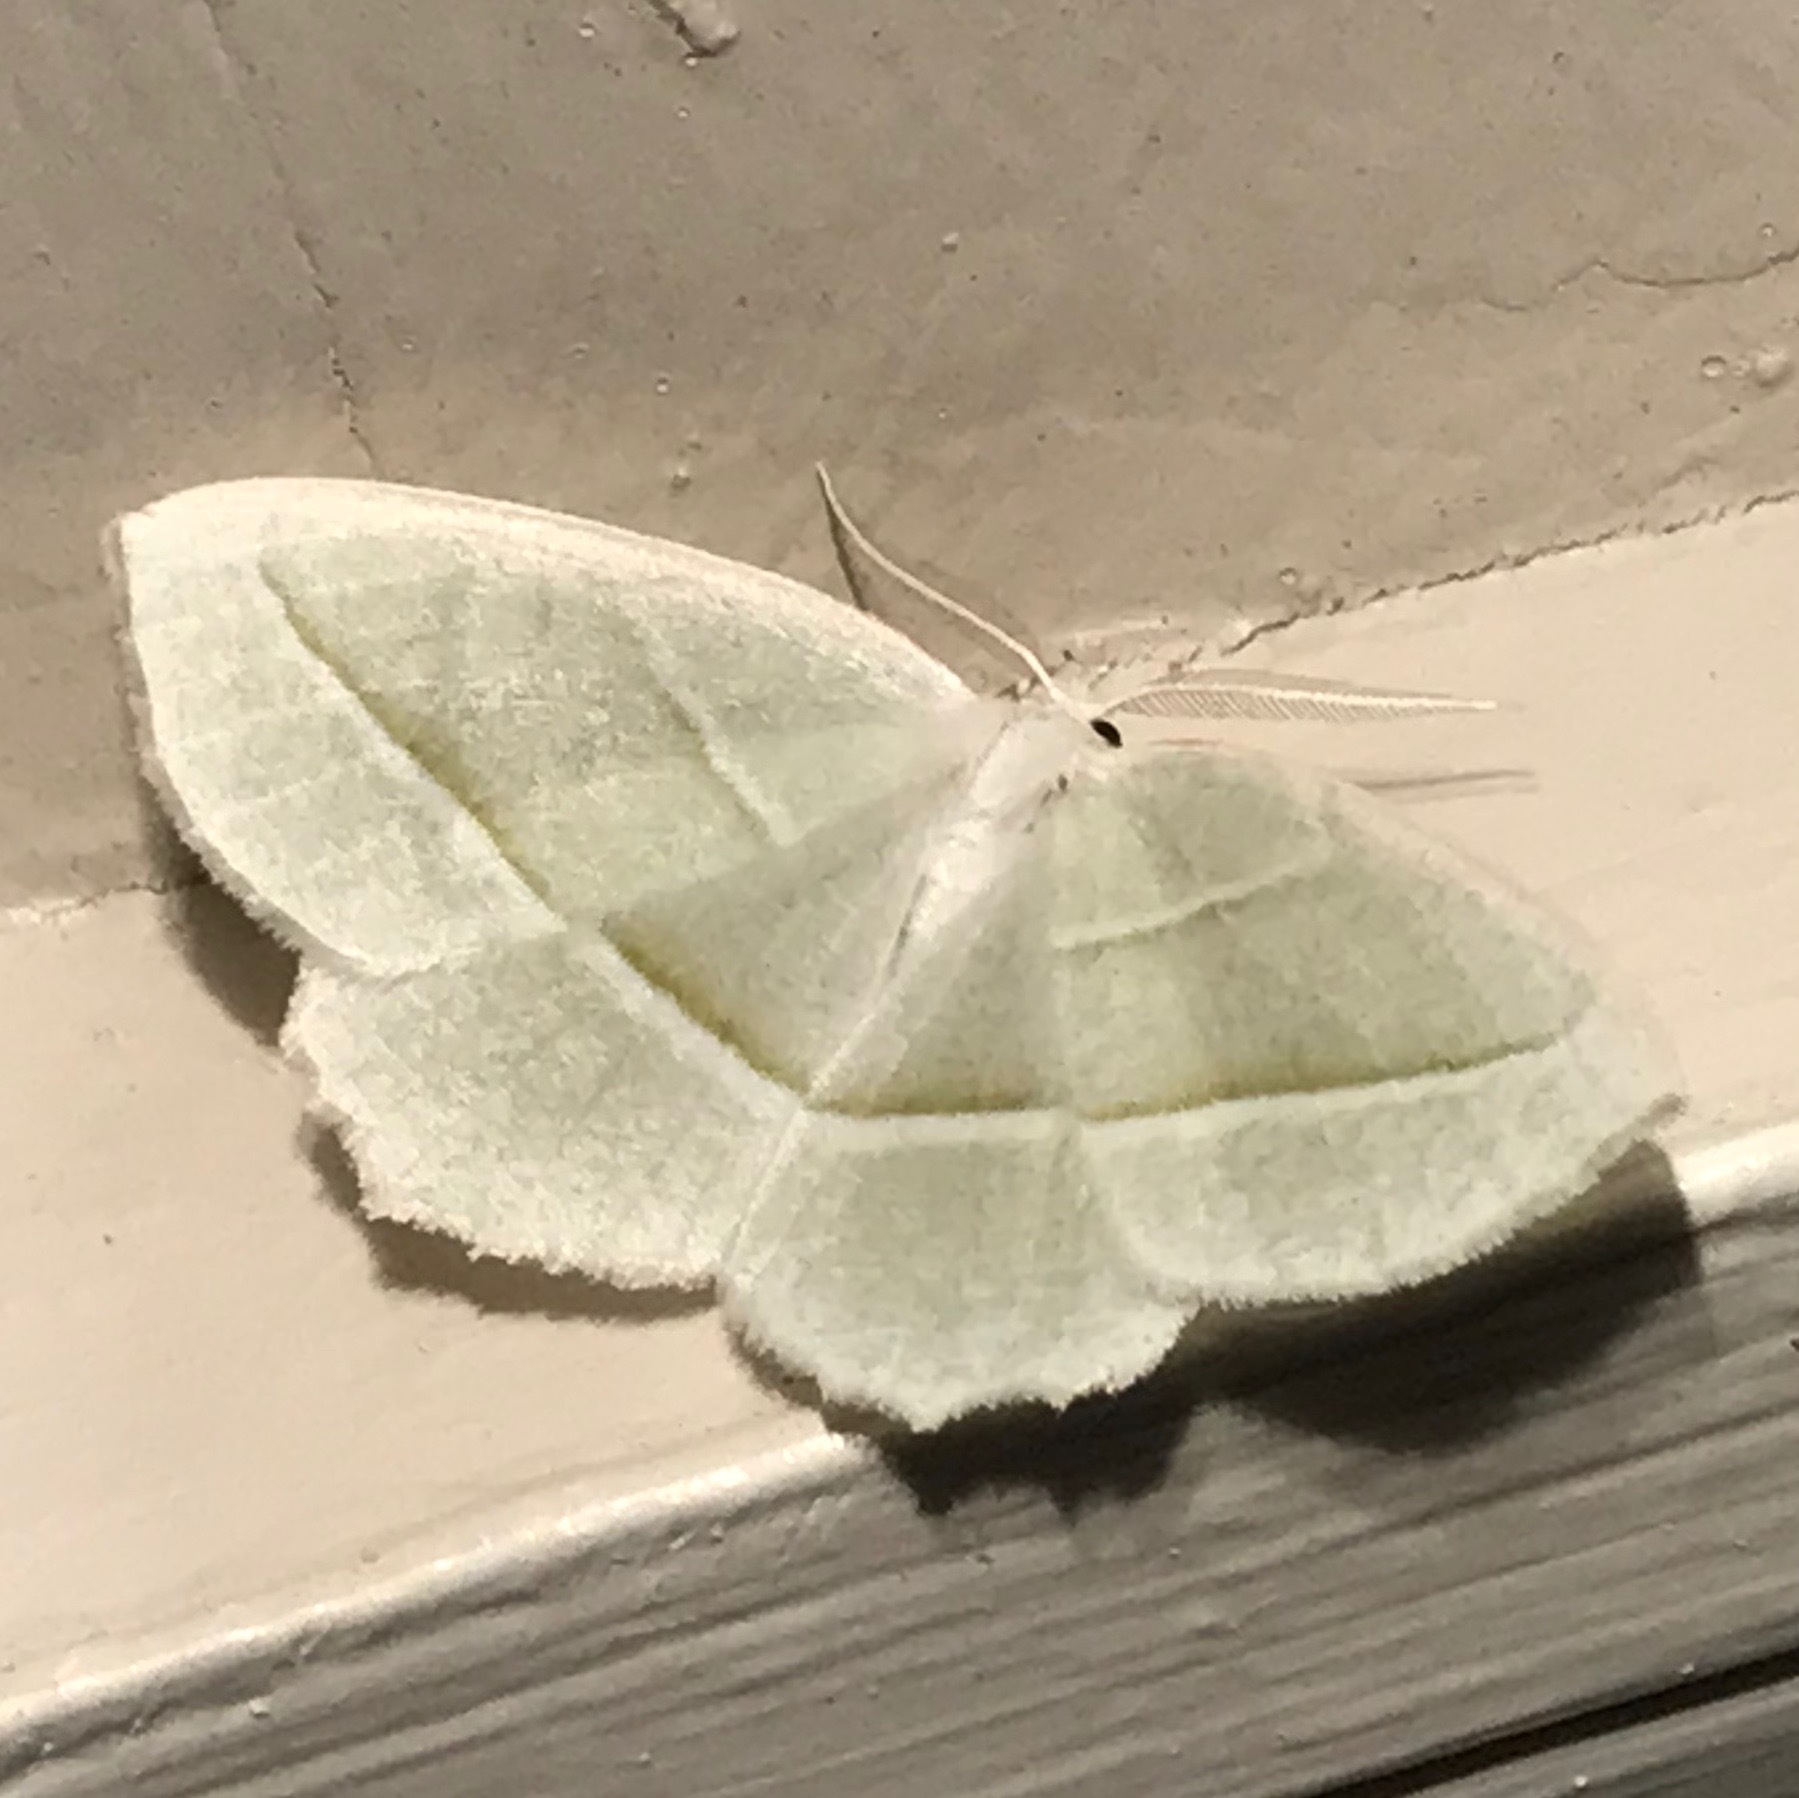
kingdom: Animalia
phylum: Arthropoda
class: Insecta
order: Lepidoptera
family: Geometridae
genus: Campaea
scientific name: Campaea perlata
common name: Fringed looper
